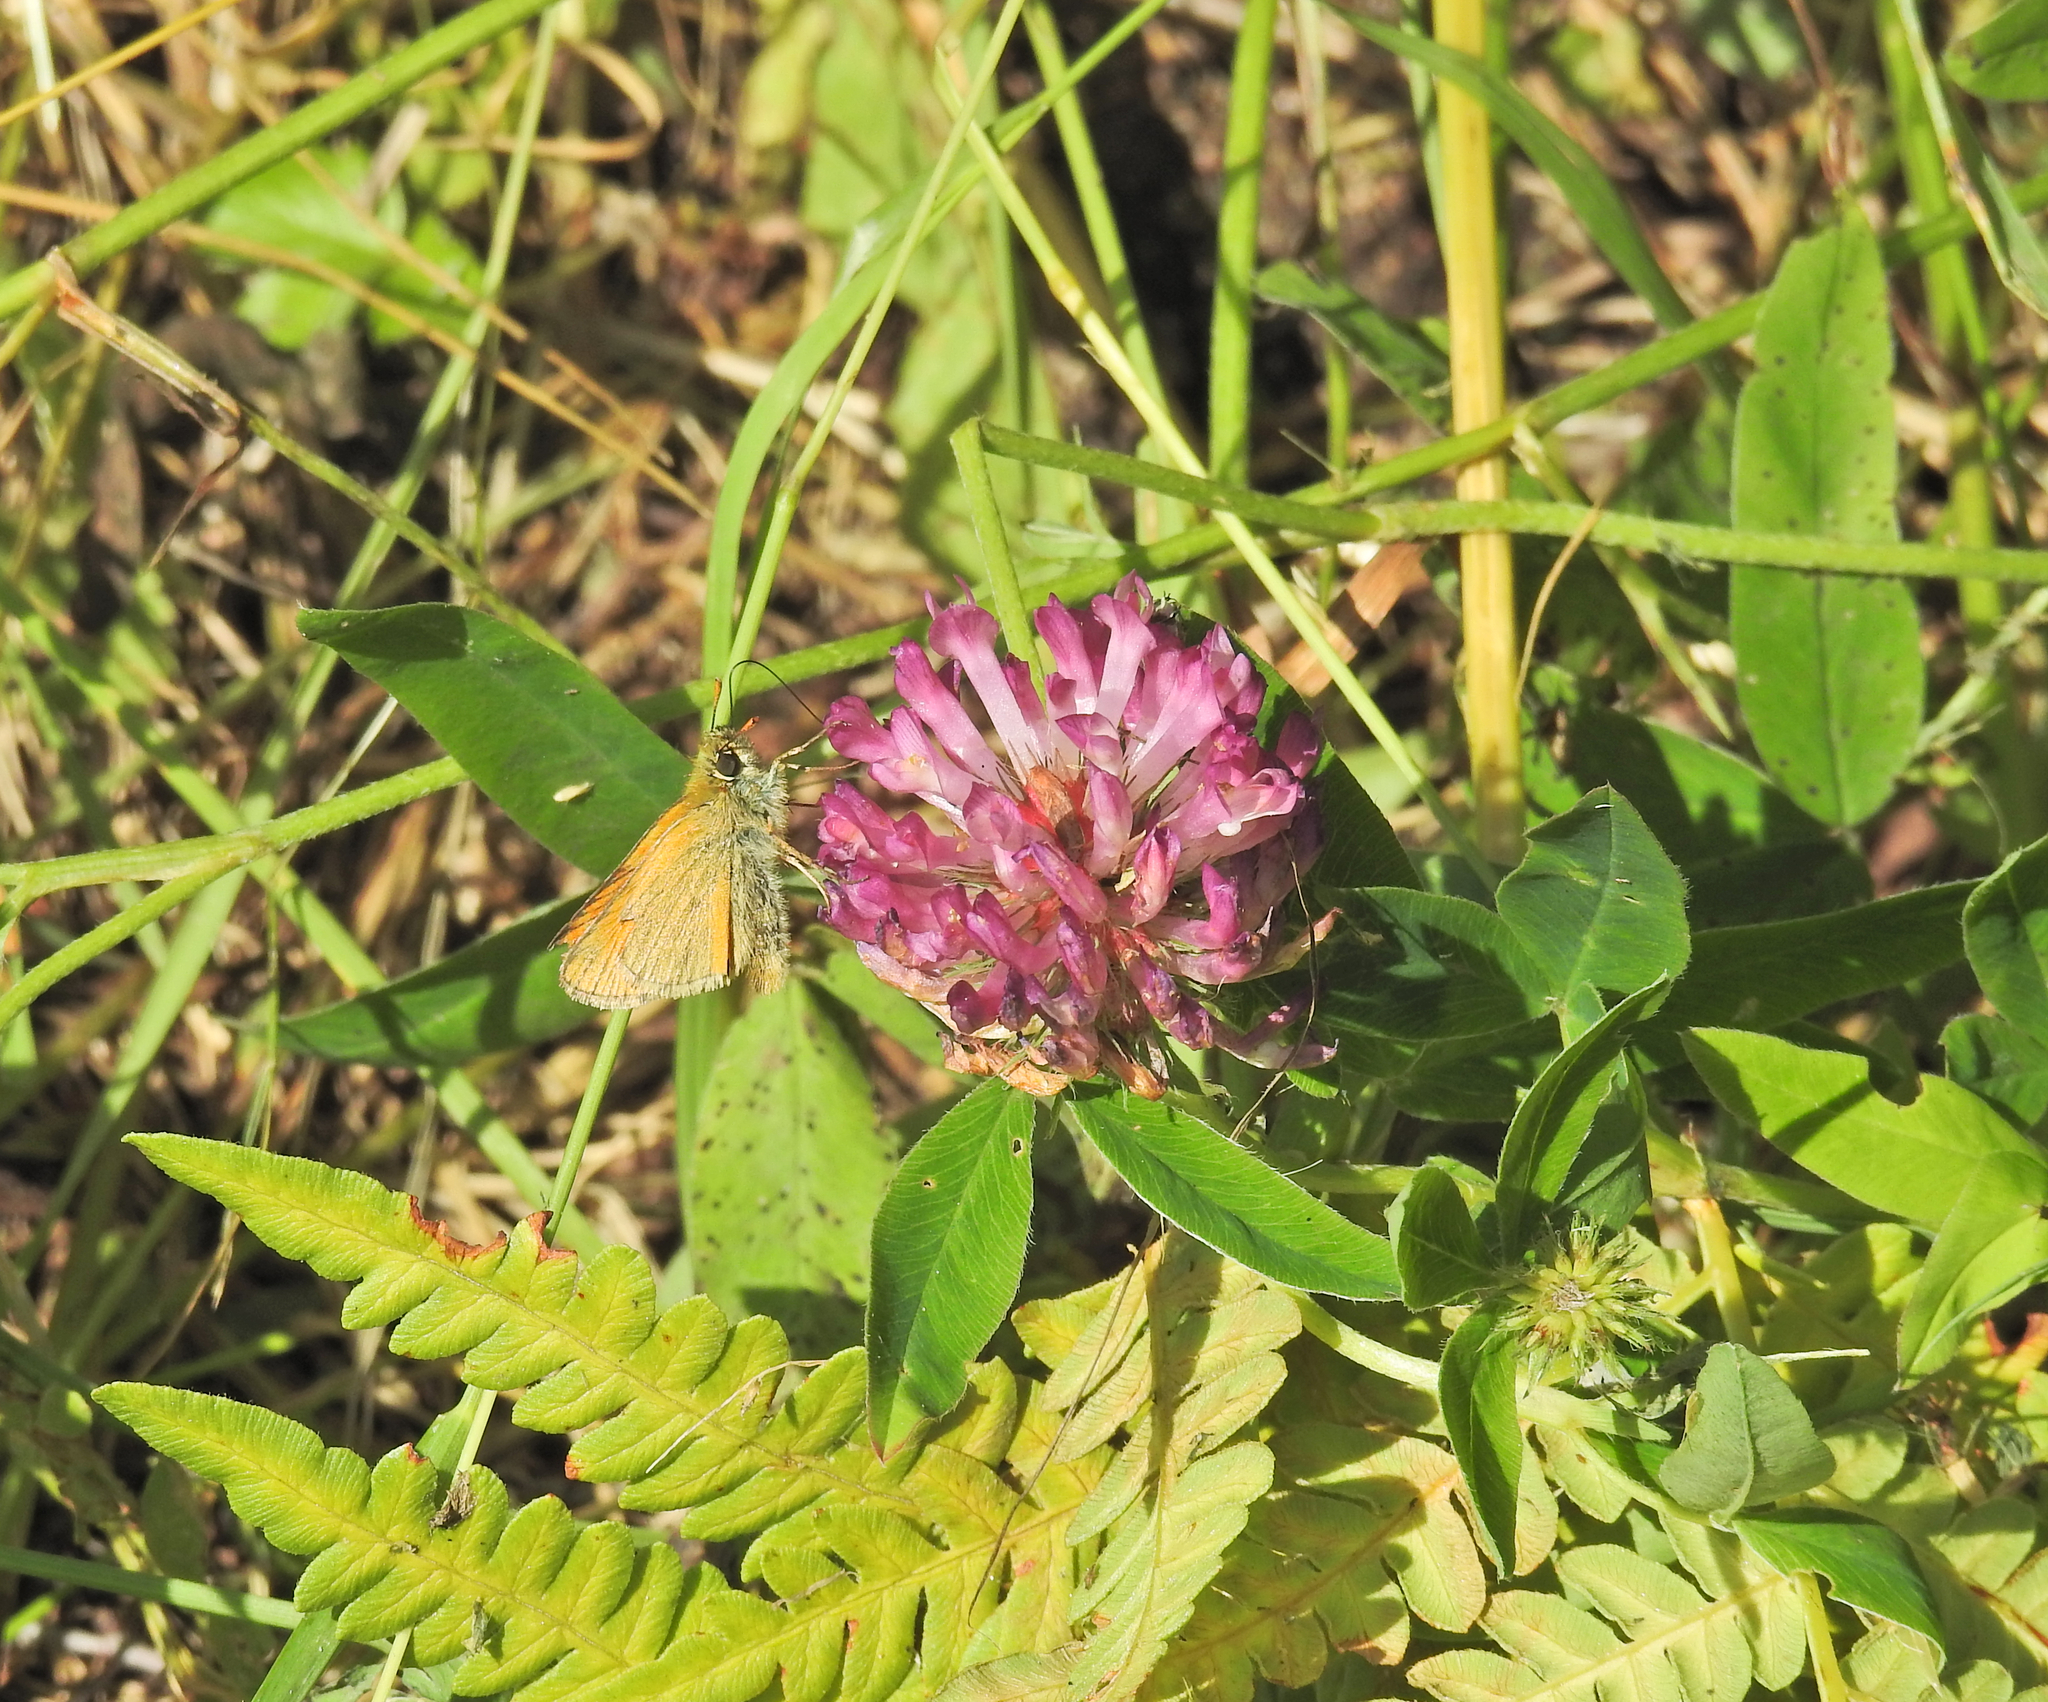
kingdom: Plantae
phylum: Tracheophyta
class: Magnoliopsida
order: Fabales
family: Fabaceae
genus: Trifolium
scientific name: Trifolium medium
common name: Zigzag clover
